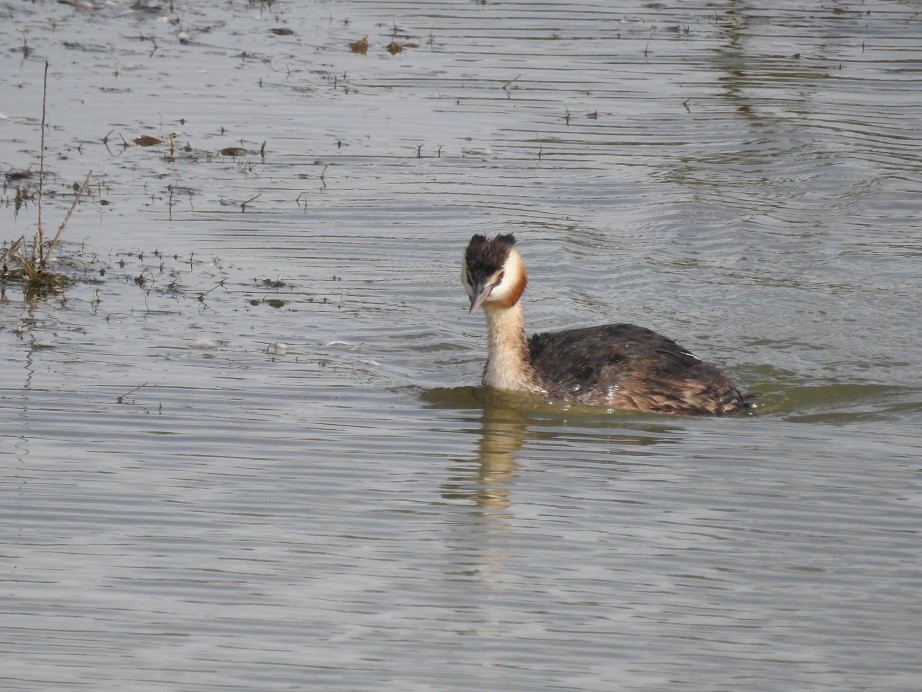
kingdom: Animalia
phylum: Chordata
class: Aves
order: Podicipediformes
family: Podicipedidae
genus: Podiceps
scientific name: Podiceps cristatus
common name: Great crested grebe
